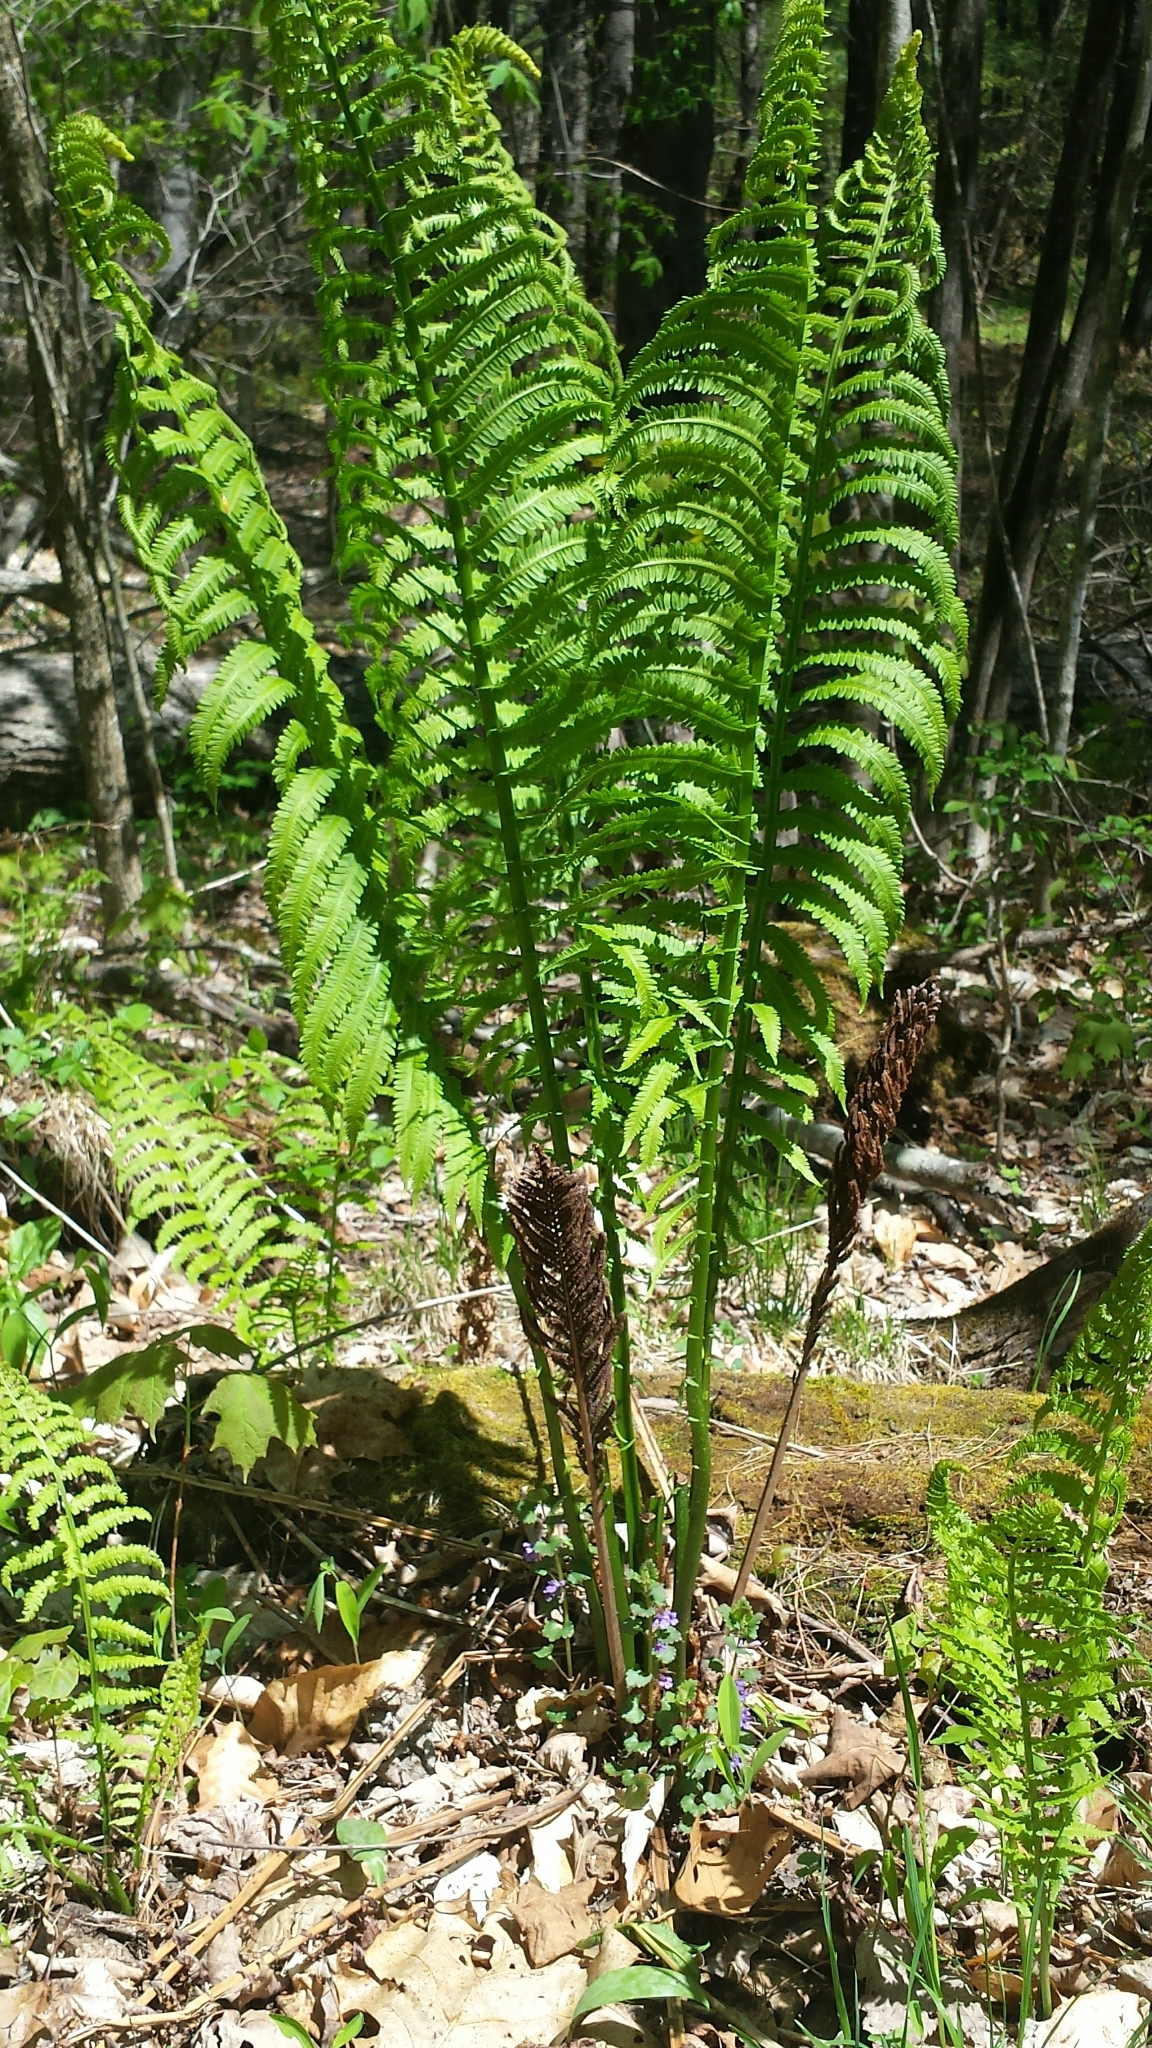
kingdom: Plantae
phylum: Tracheophyta
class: Polypodiopsida
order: Polypodiales
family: Onocleaceae
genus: Matteuccia
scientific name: Matteuccia struthiopteris
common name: Ostrich fern
